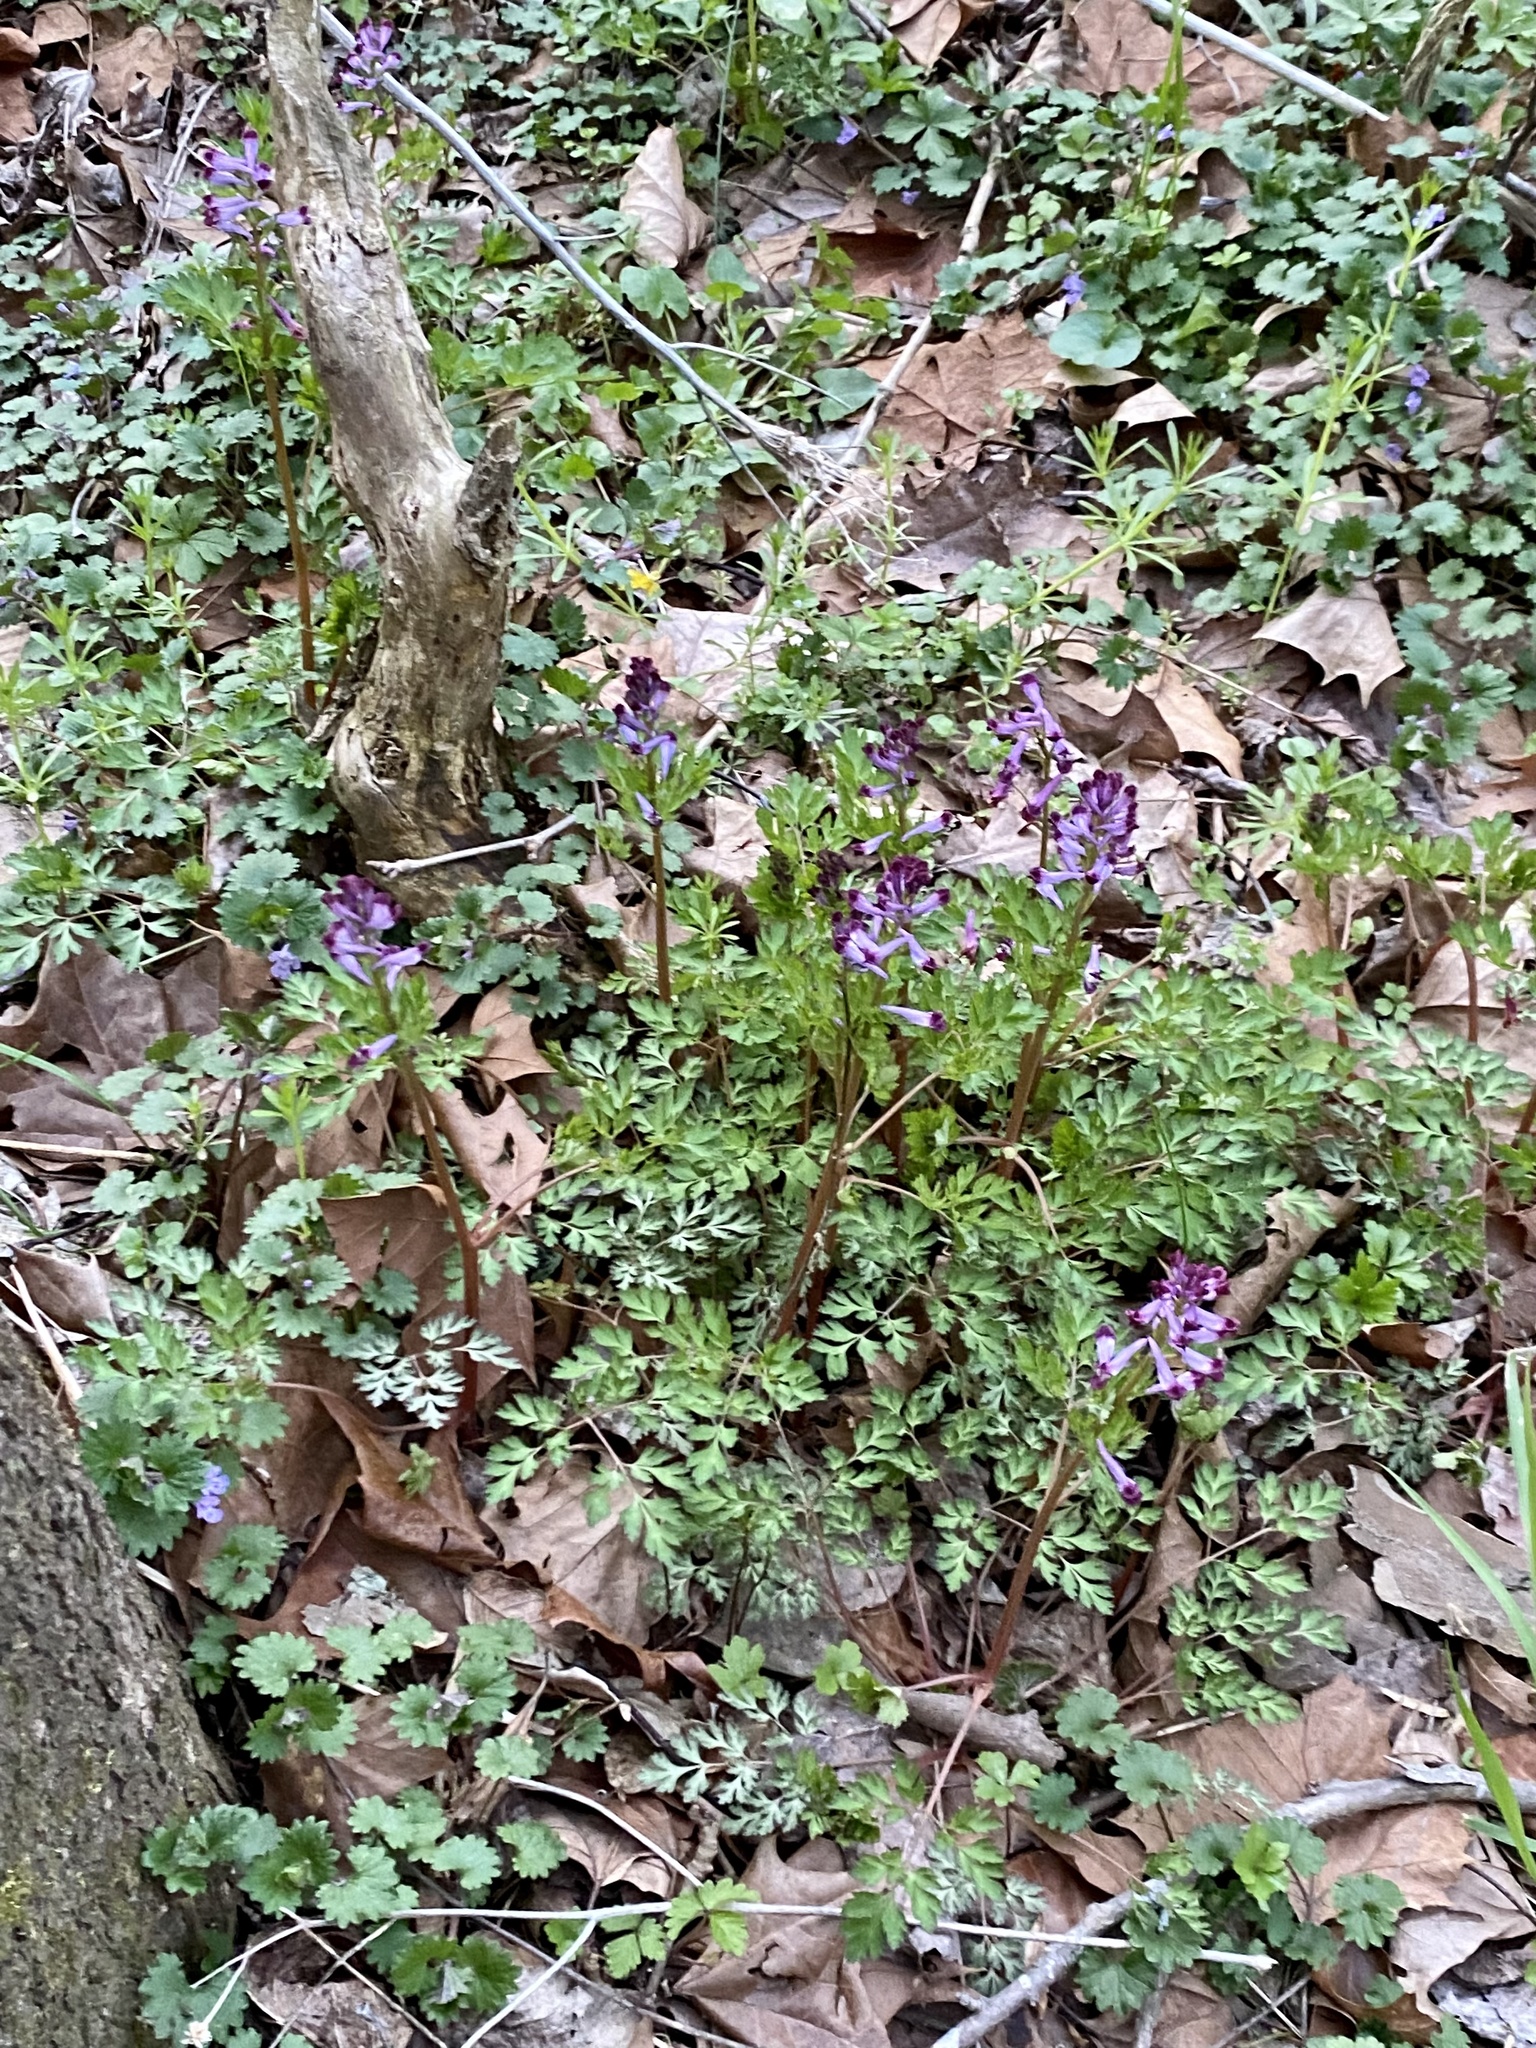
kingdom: Plantae
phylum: Tracheophyta
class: Magnoliopsida
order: Ranunculales
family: Papaveraceae
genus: Corydalis
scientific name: Corydalis incisa
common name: Incised fumewort
